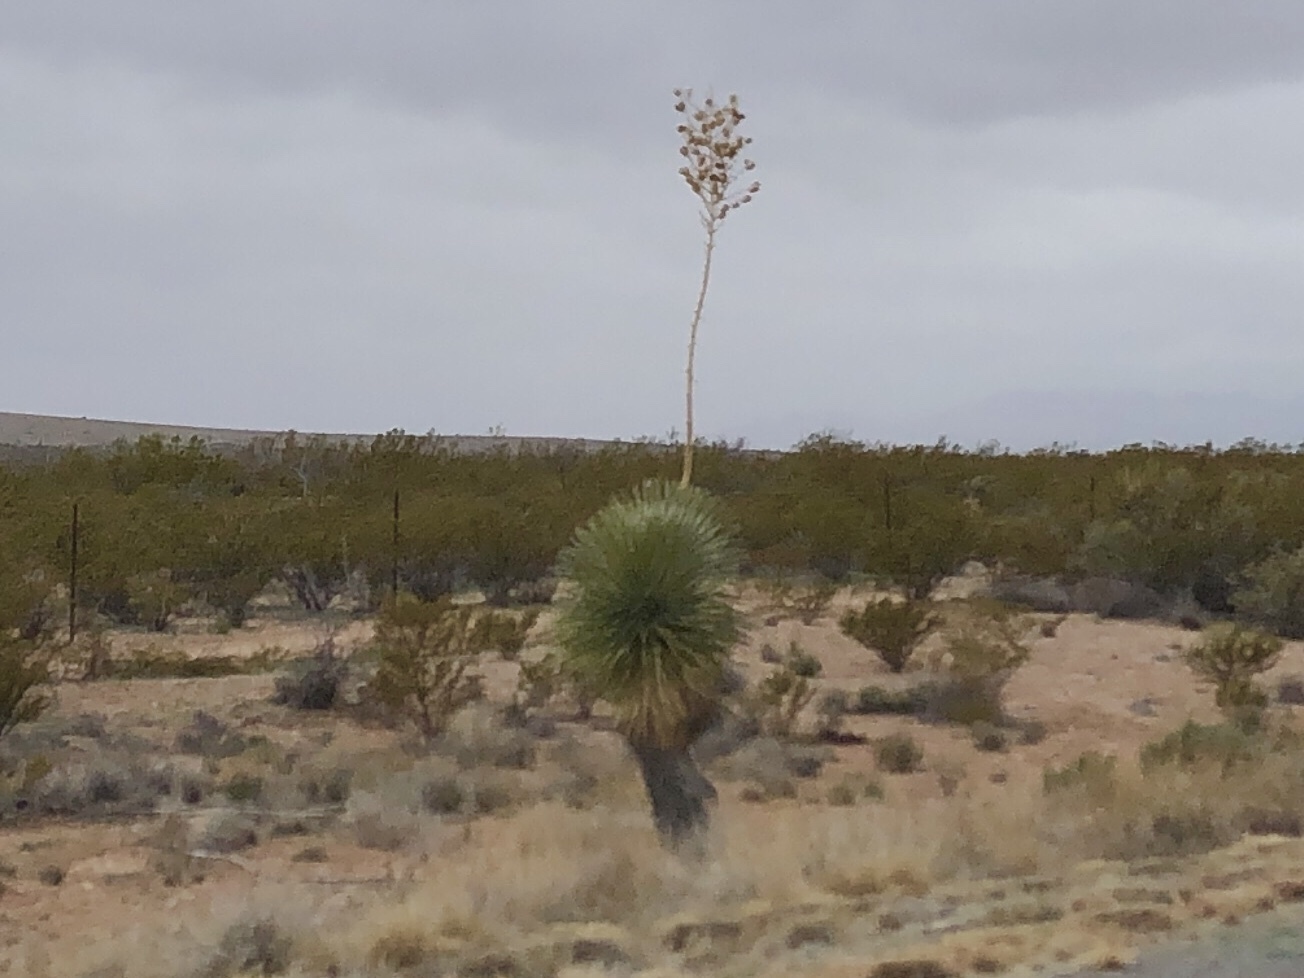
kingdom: Plantae
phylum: Tracheophyta
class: Liliopsida
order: Asparagales
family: Asparagaceae
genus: Yucca
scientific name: Yucca elata
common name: Palmella
